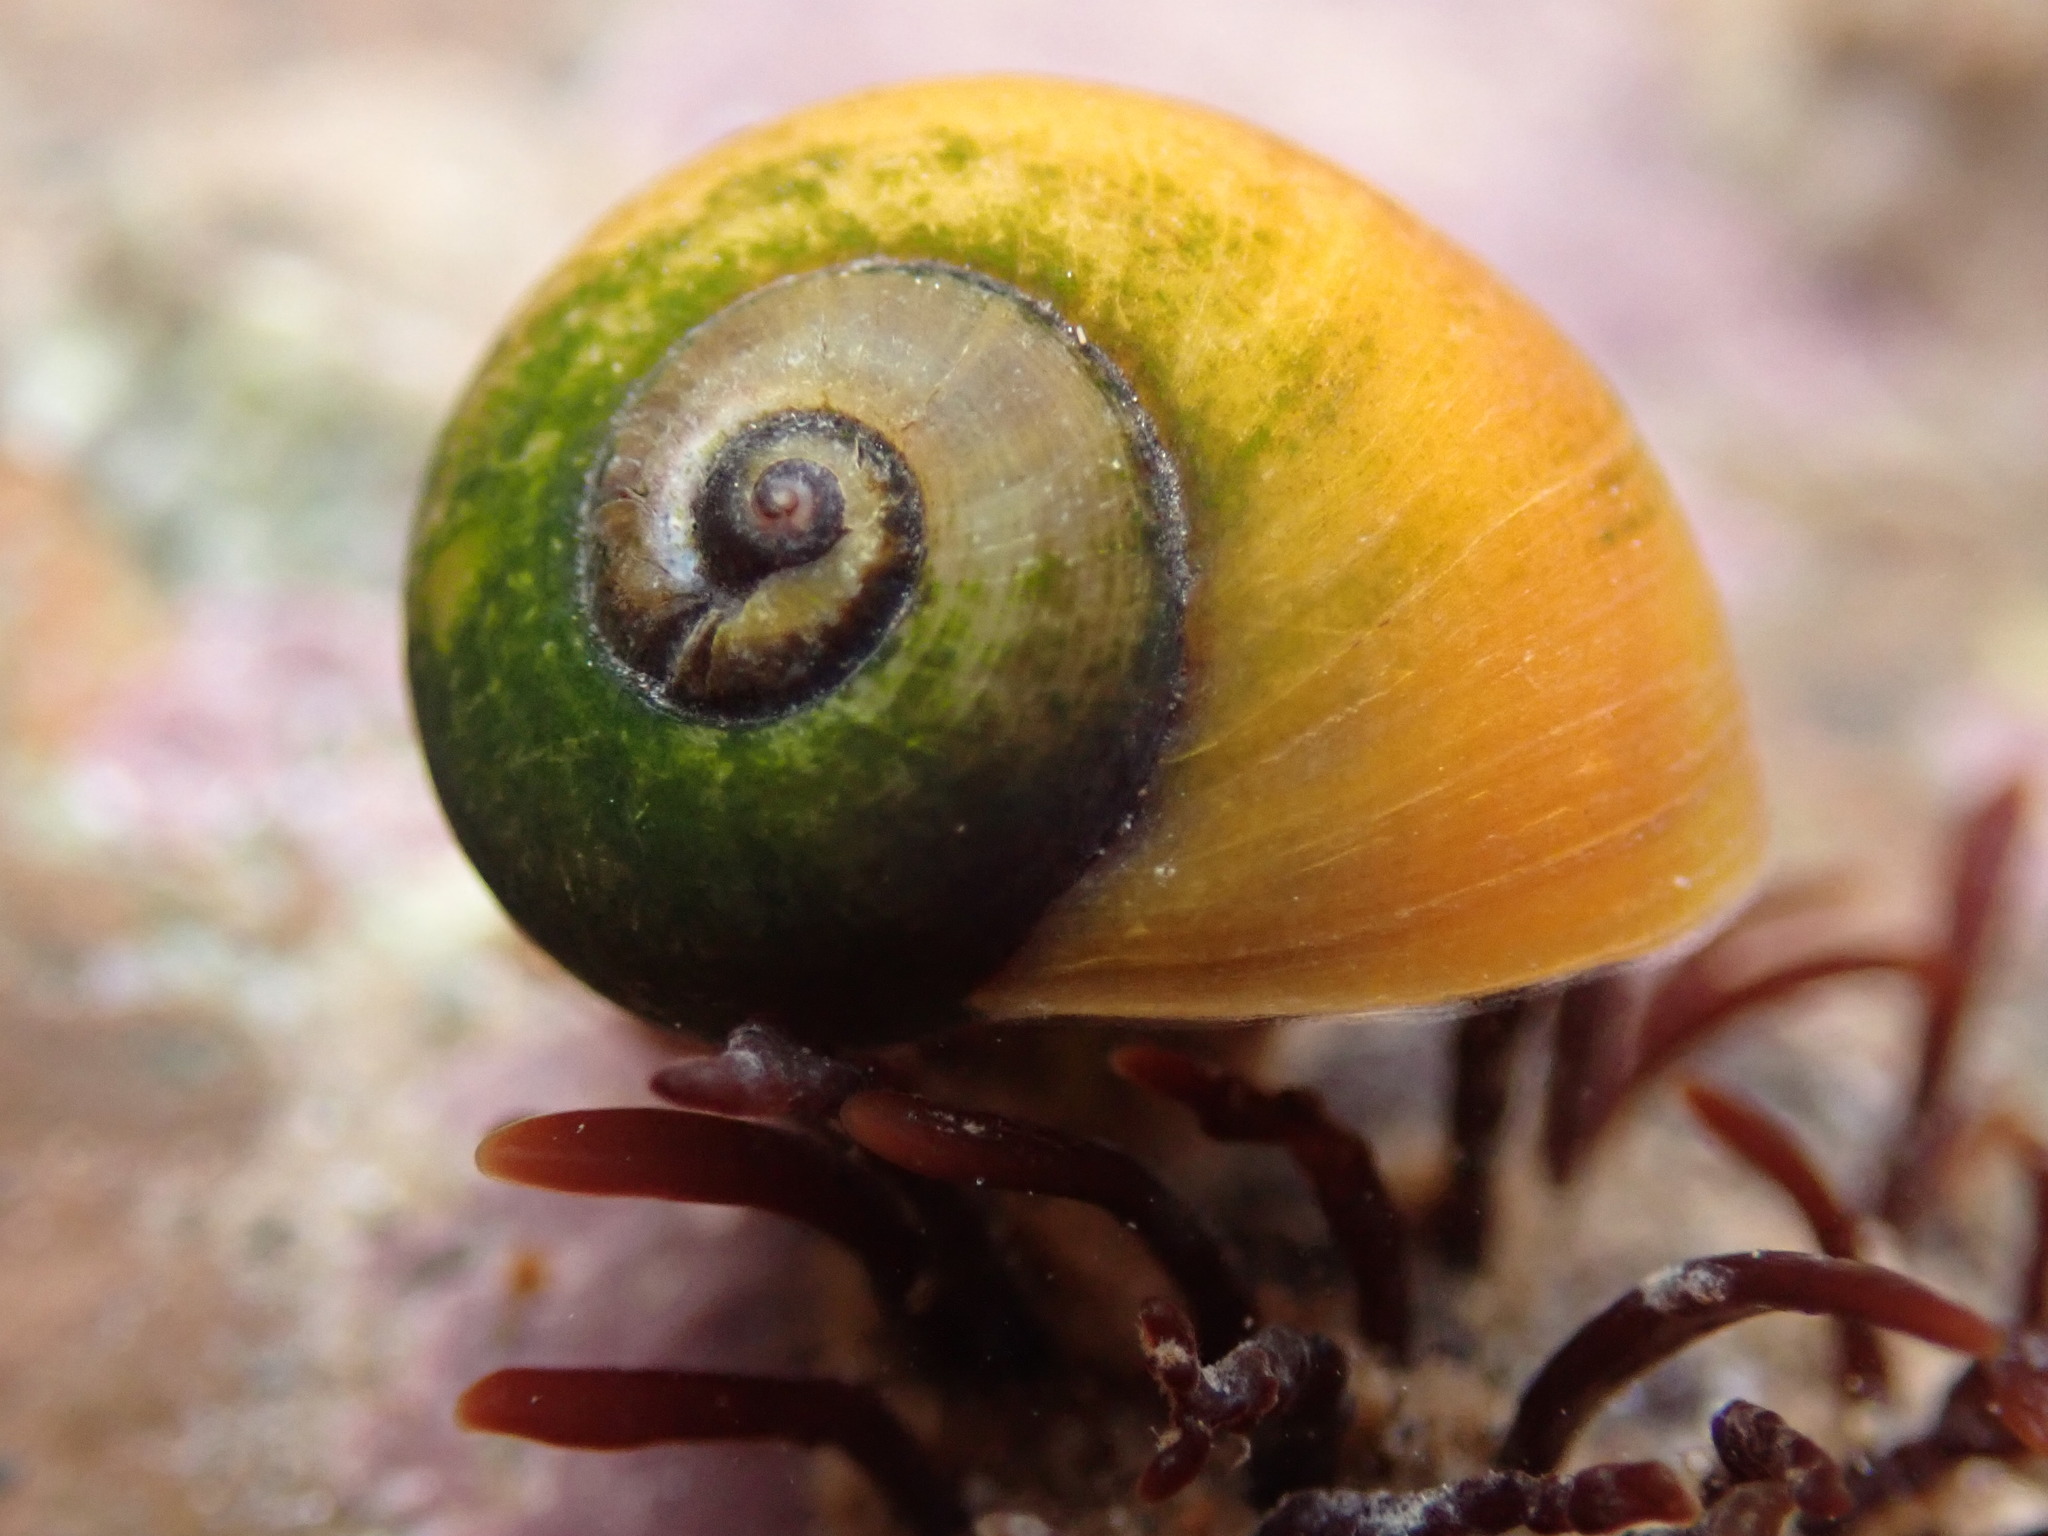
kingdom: Animalia
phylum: Mollusca
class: Gastropoda
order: Littorinimorpha
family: Littorinidae
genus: Littorina
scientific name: Littorina obtusata
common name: Flat periwinkle
